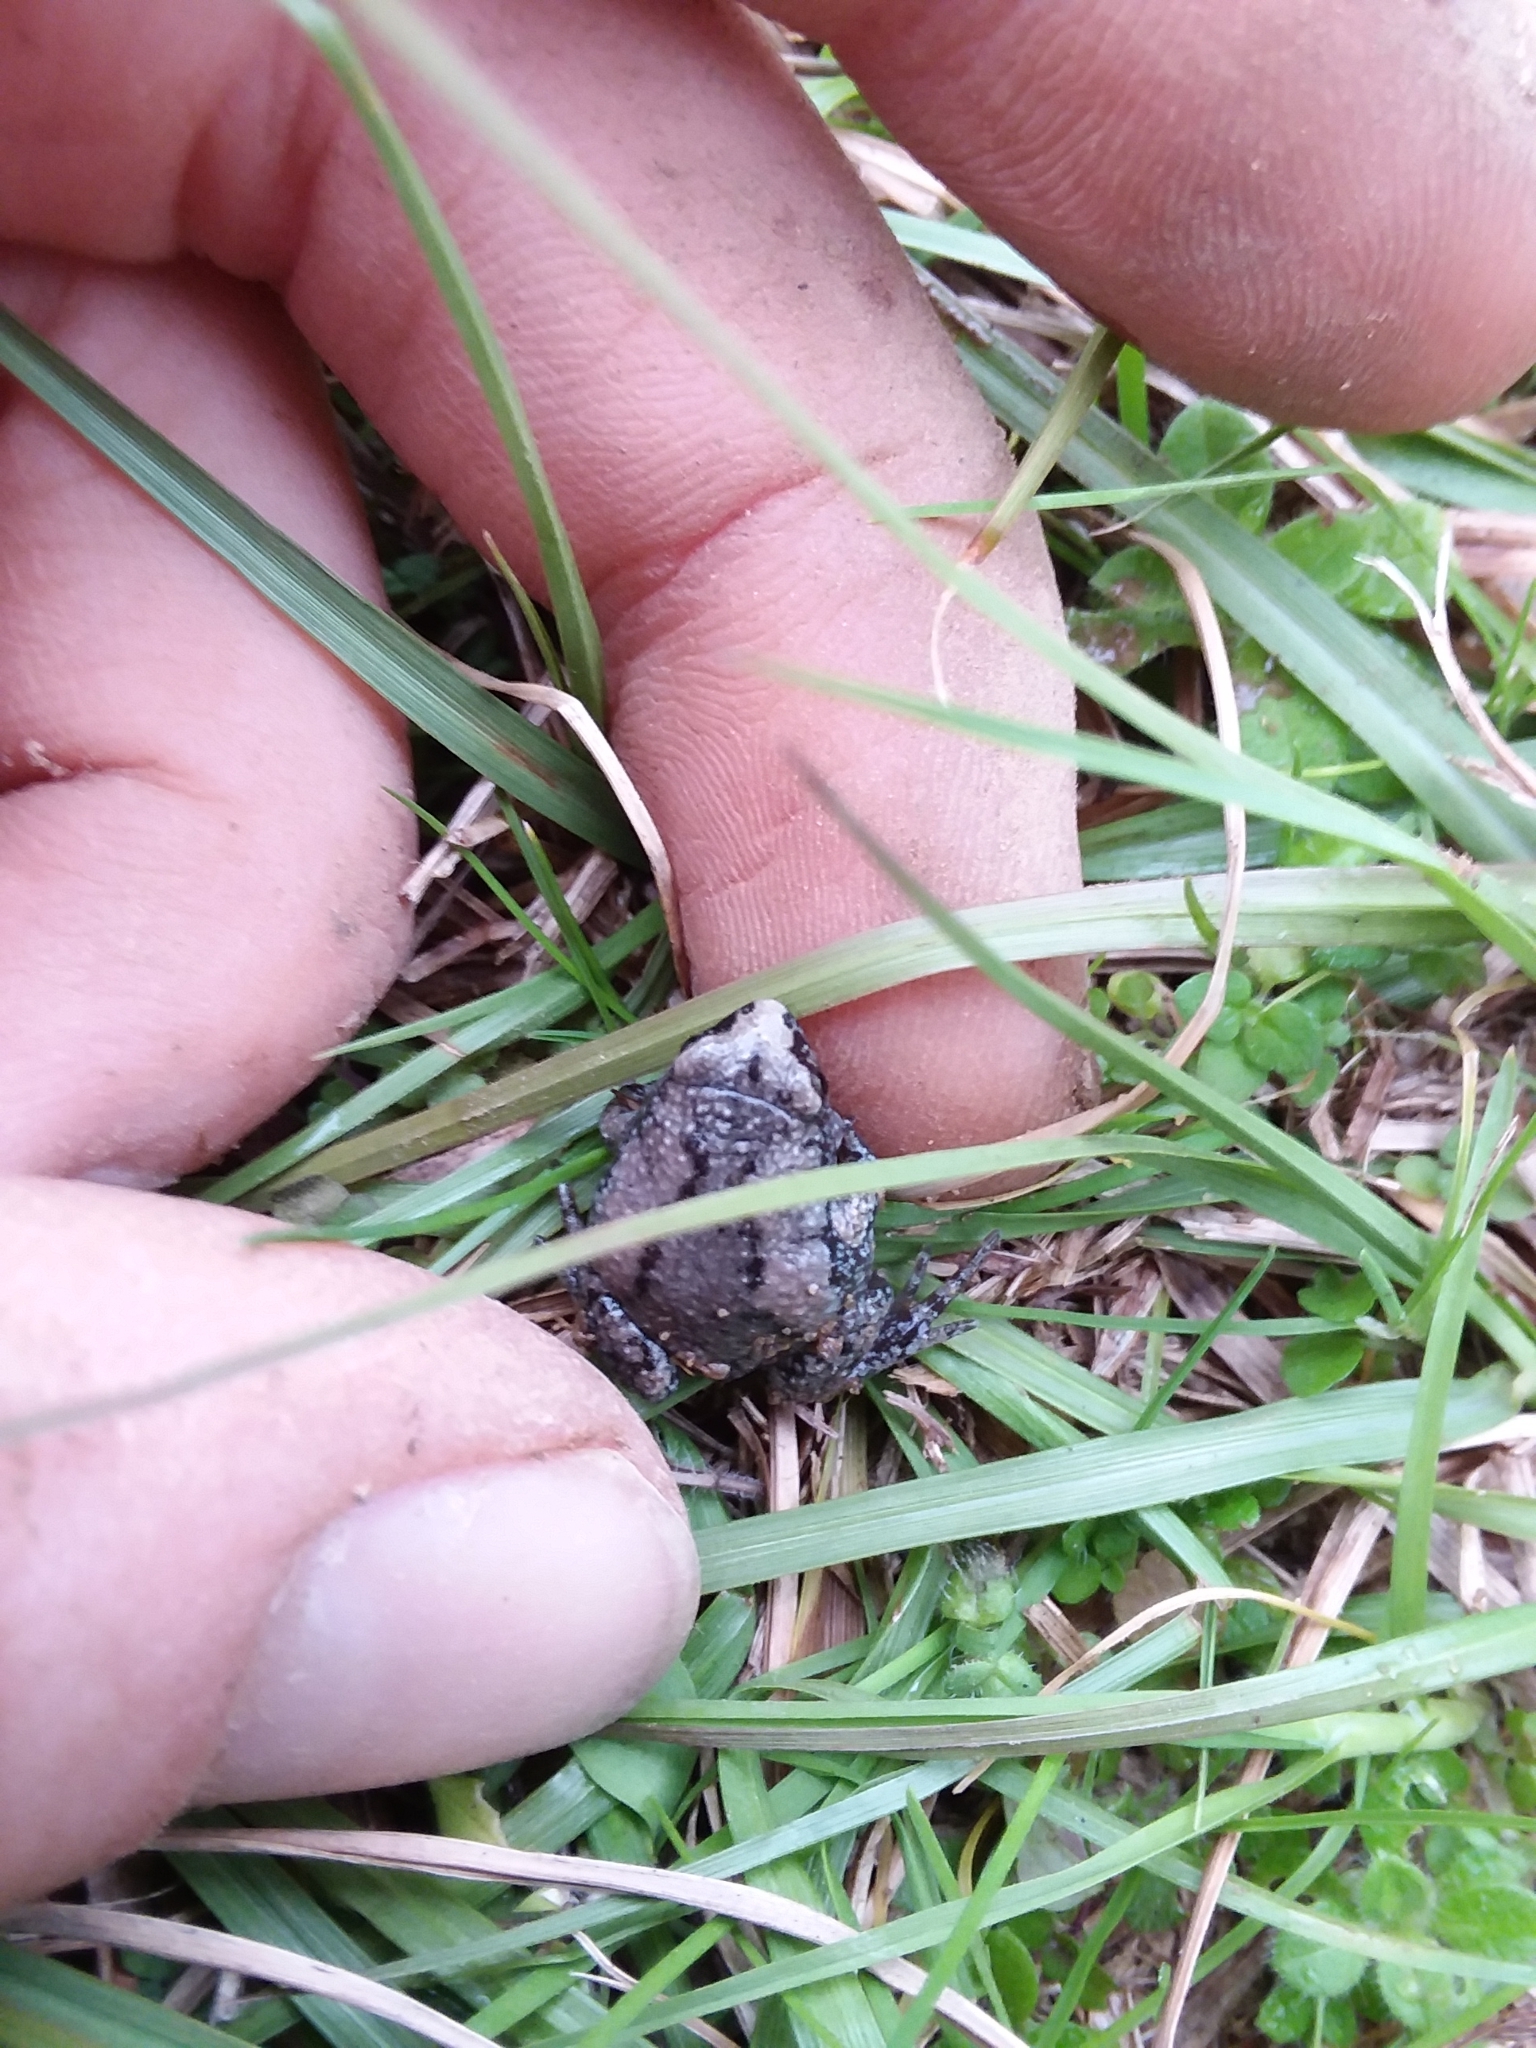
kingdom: Animalia
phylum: Chordata
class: Amphibia
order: Anura
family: Microhylidae
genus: Gastrophryne
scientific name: Gastrophryne carolinensis
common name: Eastern narrowmouth toad
